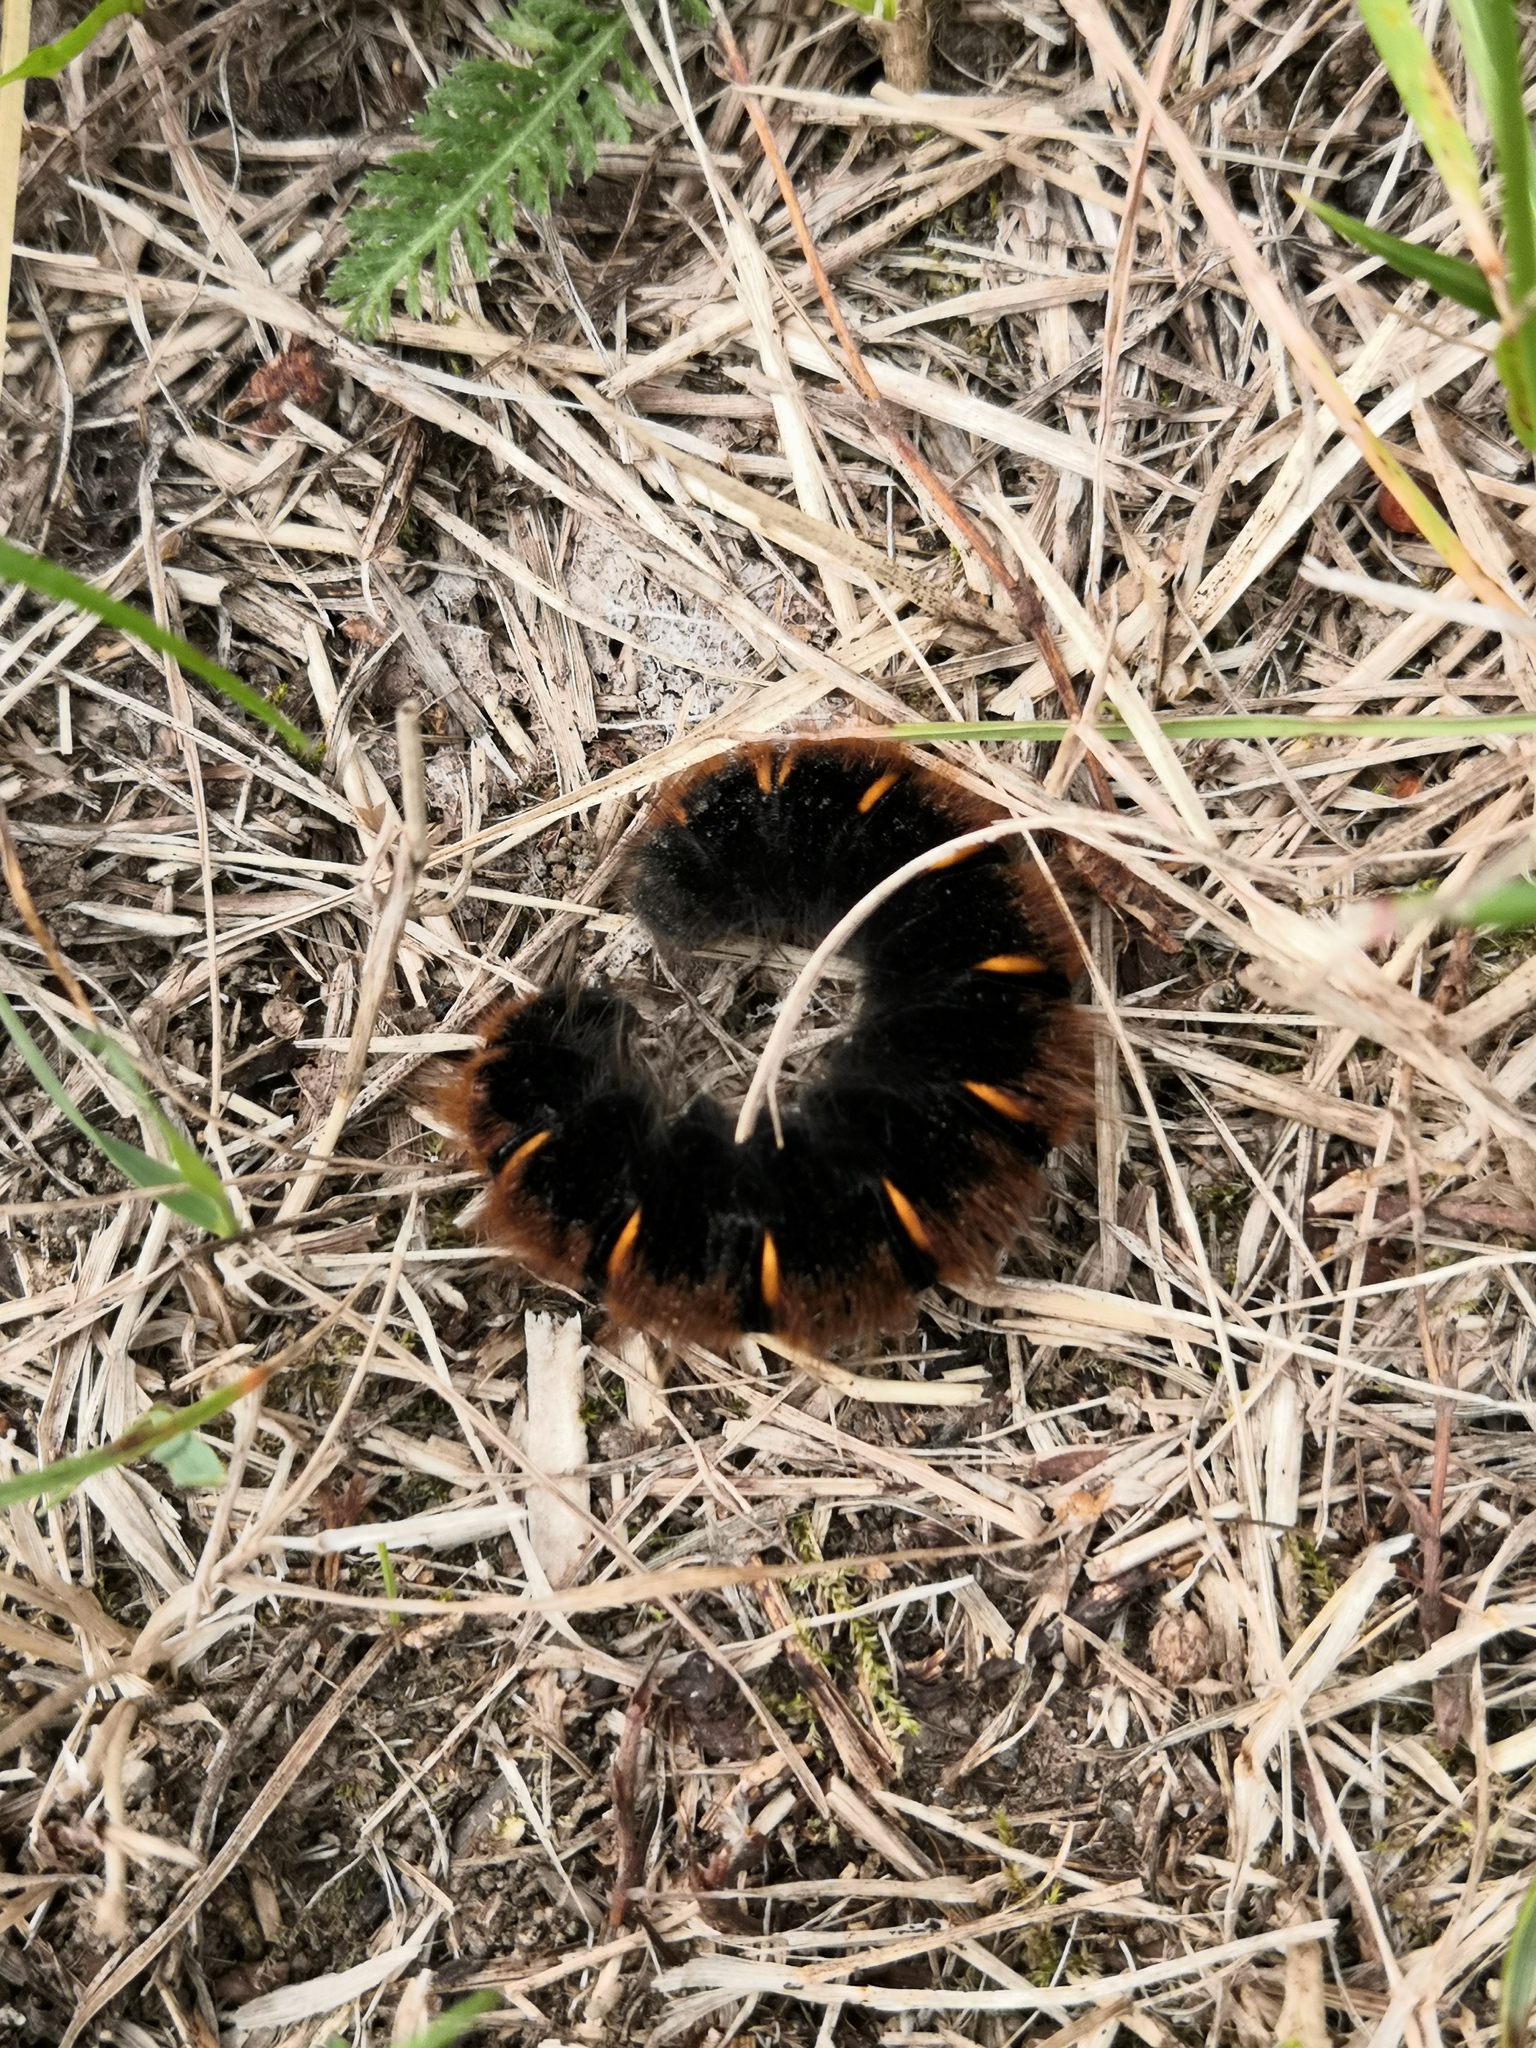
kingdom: Animalia
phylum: Arthropoda
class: Insecta
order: Lepidoptera
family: Lasiocampidae
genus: Macrothylacia
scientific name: Macrothylacia rubi
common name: Fox moth
